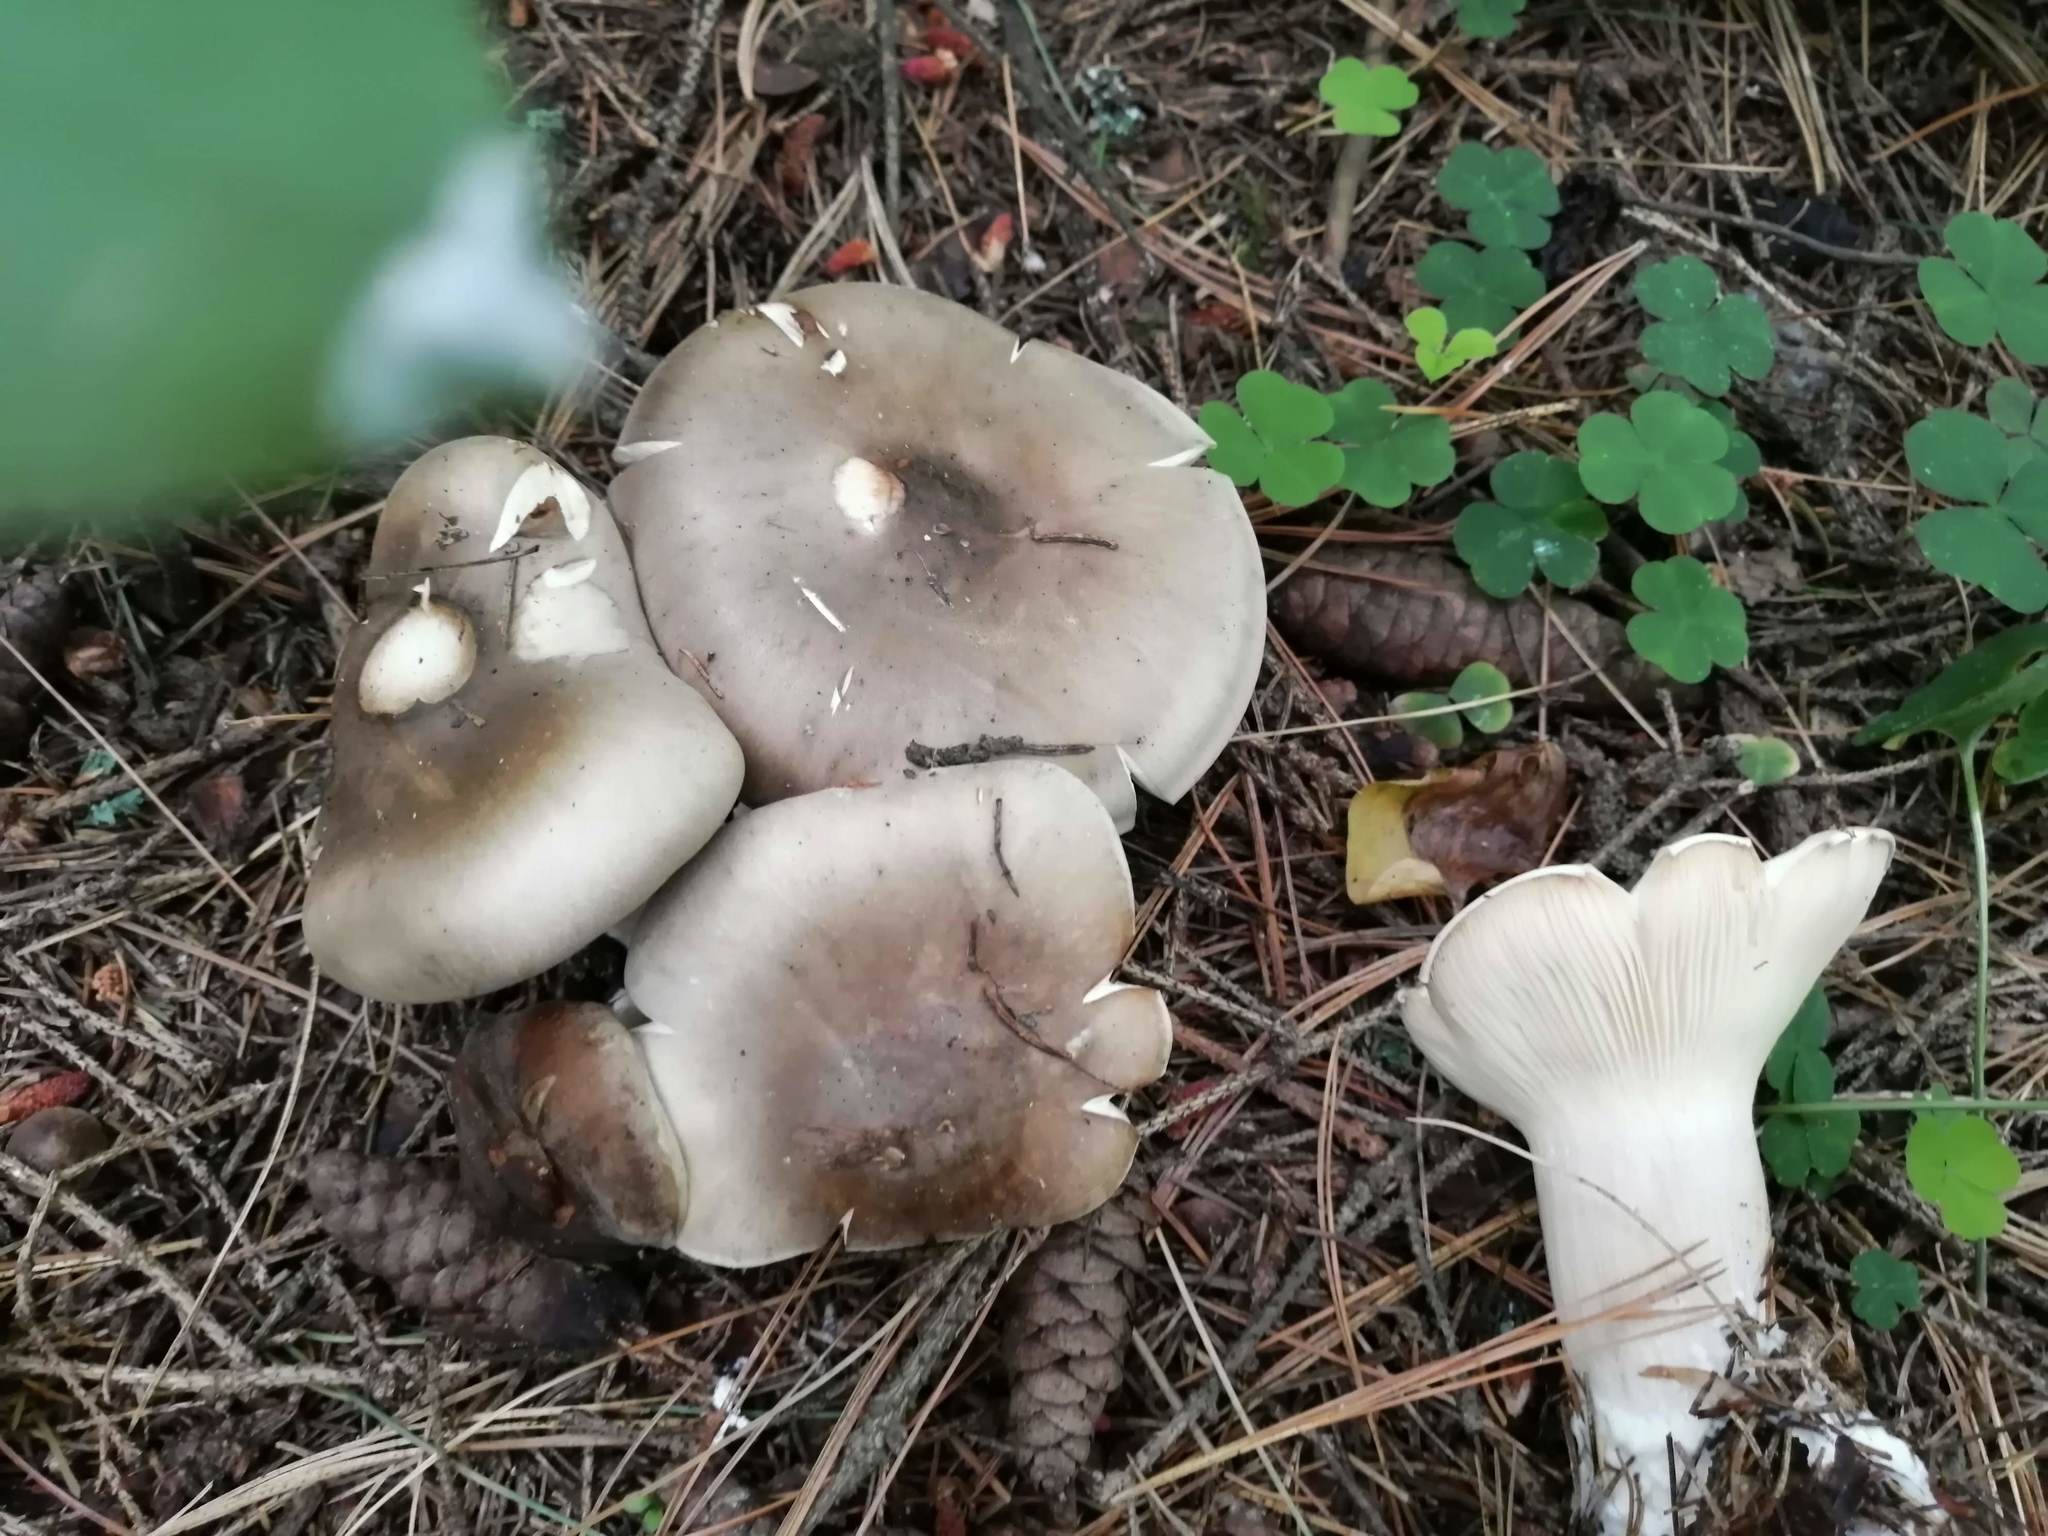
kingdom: Fungi
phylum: Basidiomycota
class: Agaricomycetes
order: Agaricales
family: Tricholomataceae
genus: Clitocybe
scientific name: Clitocybe nebularis
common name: Clouded agaric
